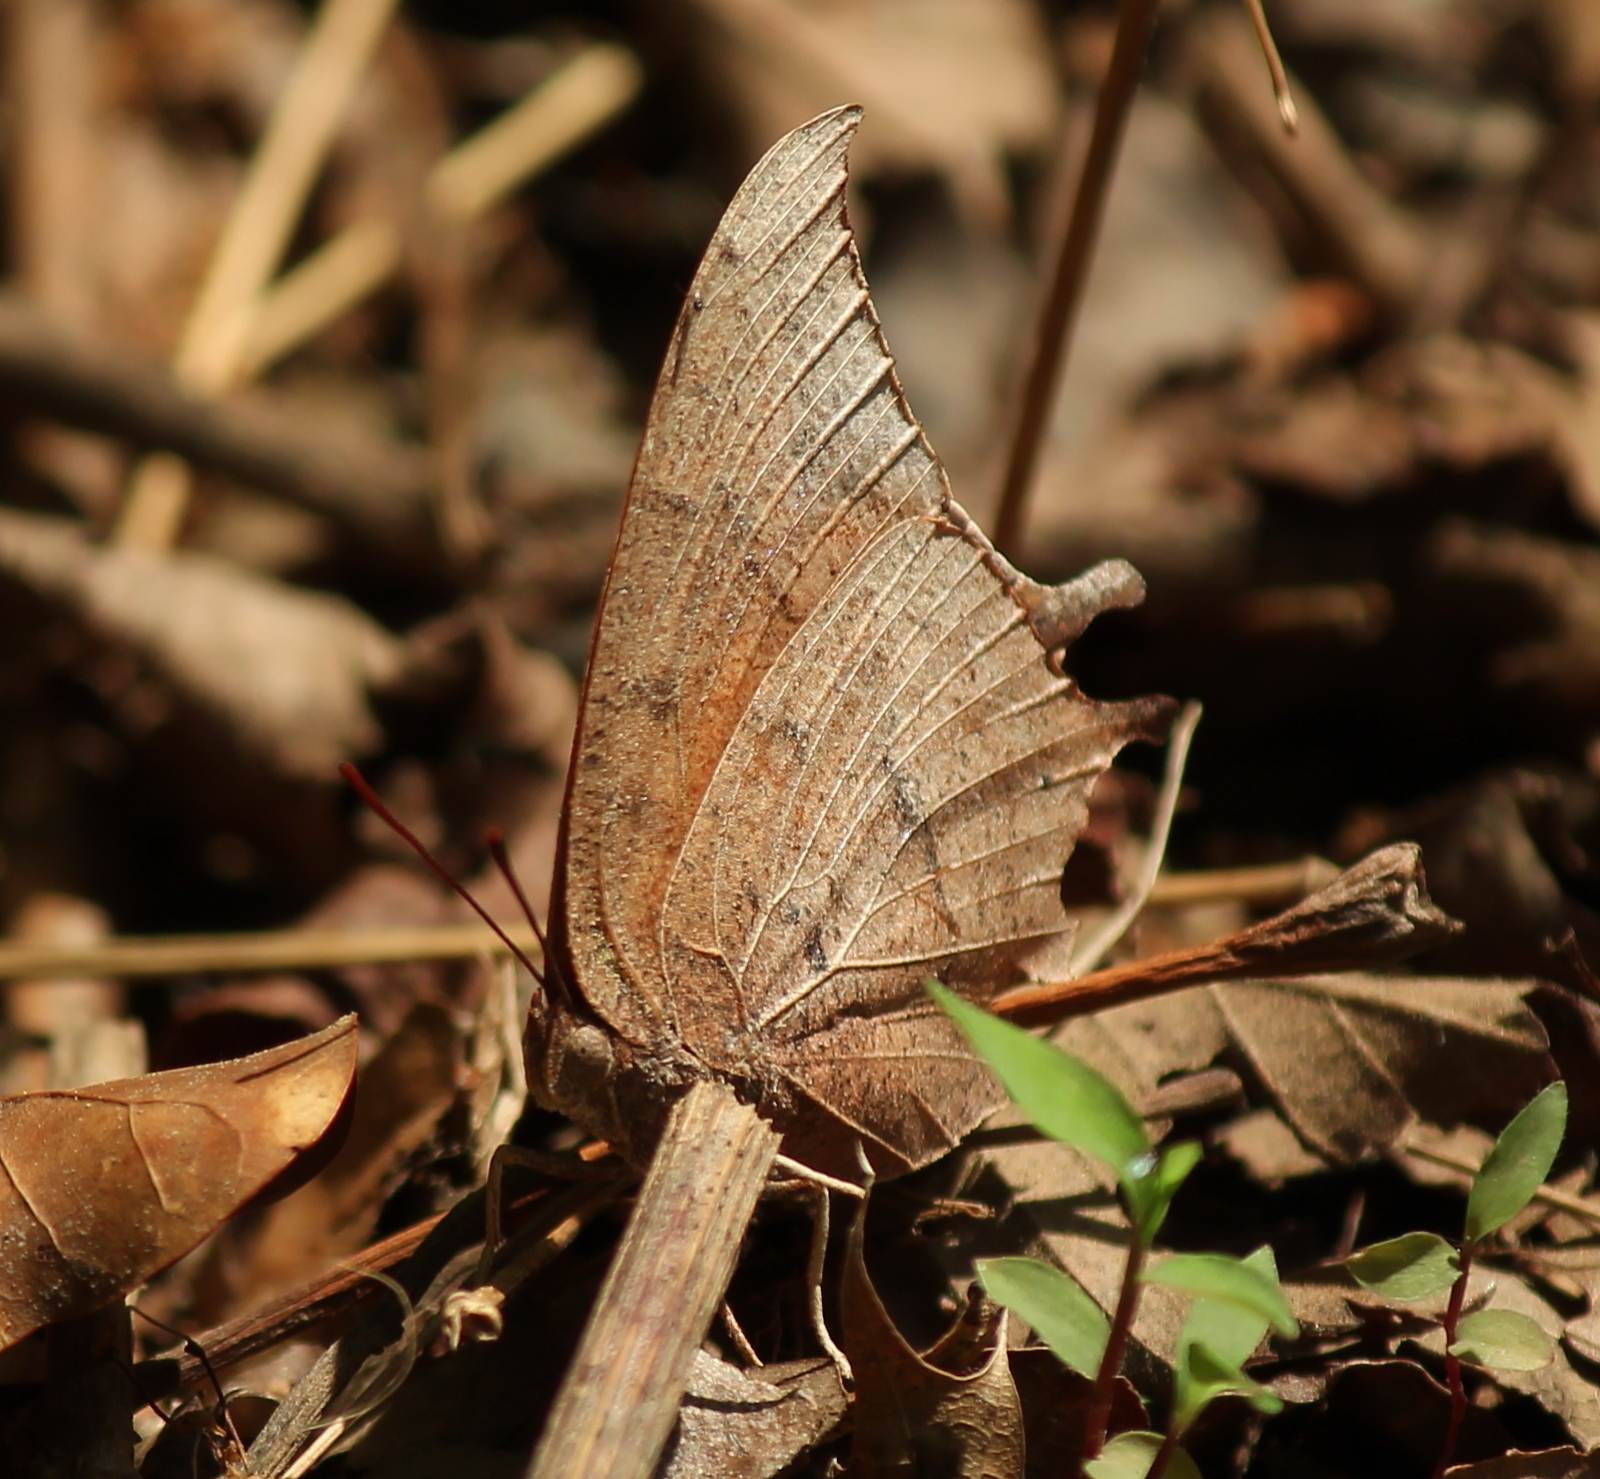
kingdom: Animalia
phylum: Arthropoda
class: Insecta
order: Lepidoptera
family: Nymphalidae
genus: Anaea
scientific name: Anaea andria
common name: Goatweed leafwing
